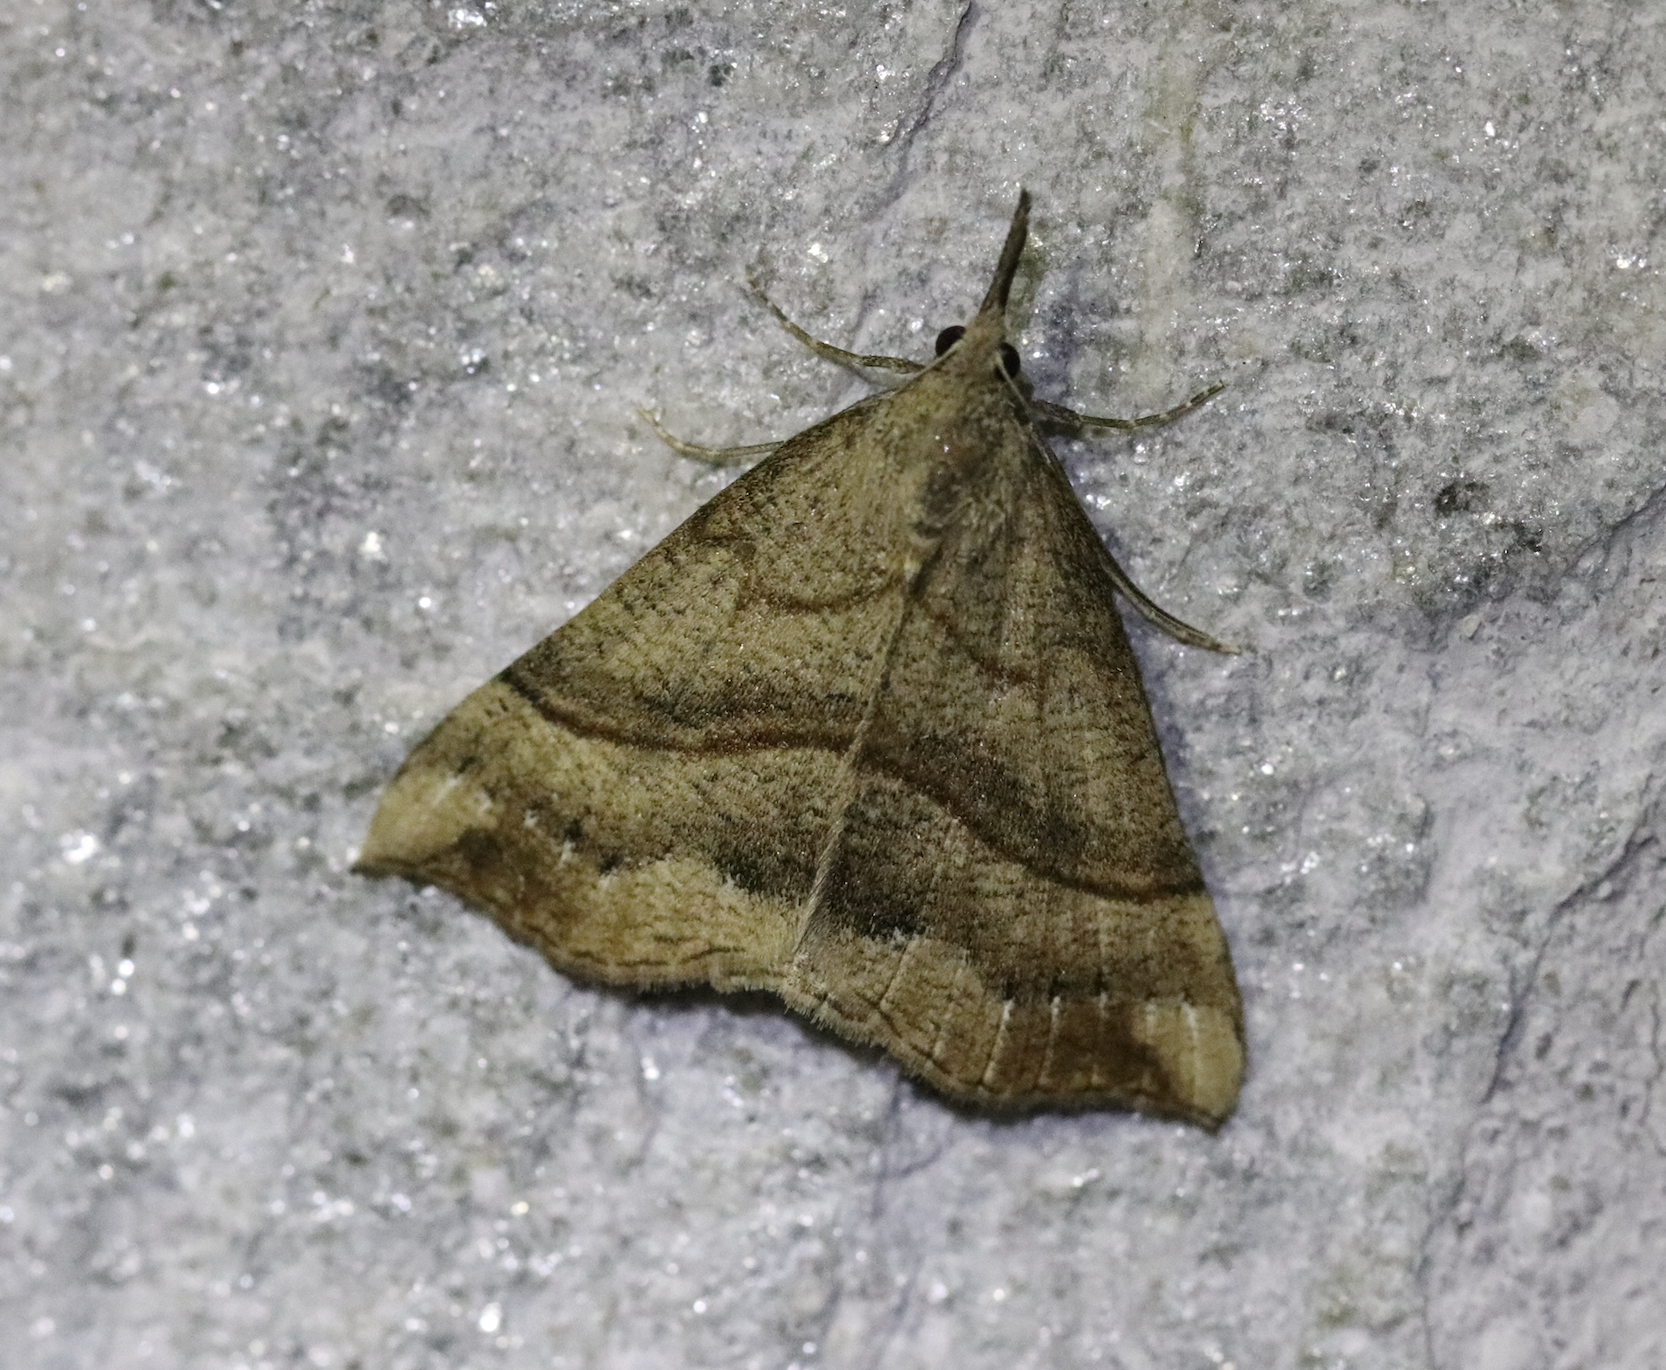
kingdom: Animalia
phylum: Arthropoda
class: Insecta
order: Lepidoptera
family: Erebidae
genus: Hypena
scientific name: Hypena proboscidalis
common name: Snout
